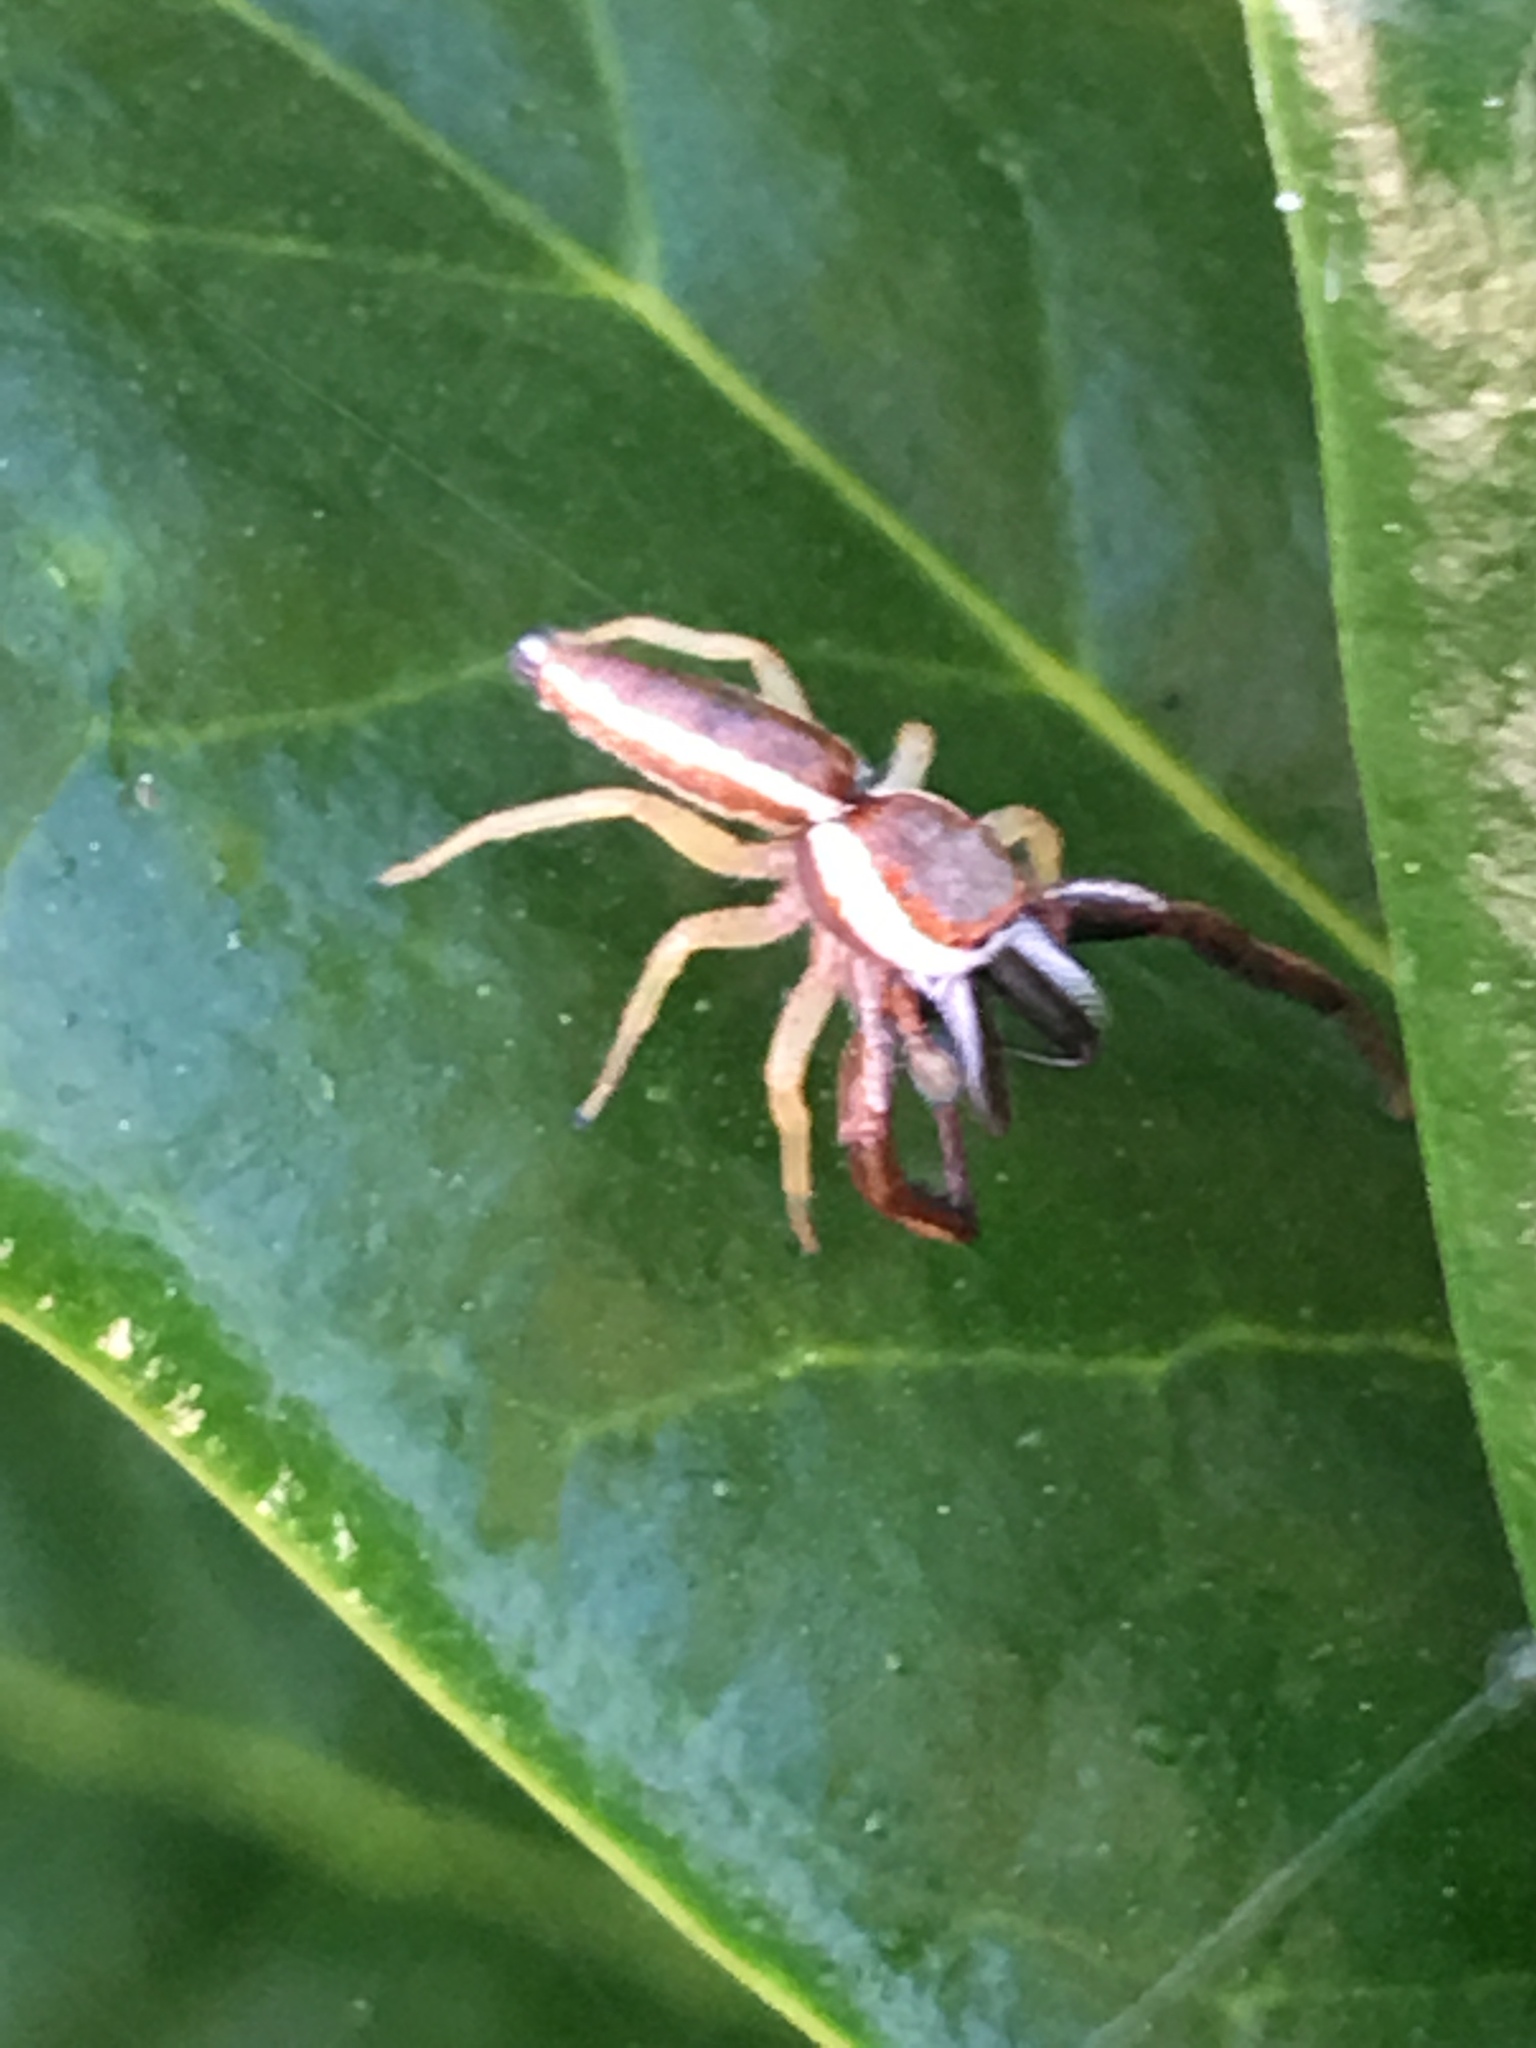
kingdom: Animalia
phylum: Arthropoda
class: Arachnida
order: Araneae
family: Salticidae
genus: Hentzia
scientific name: Hentzia palmarum
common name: Common hentz jumping spider
